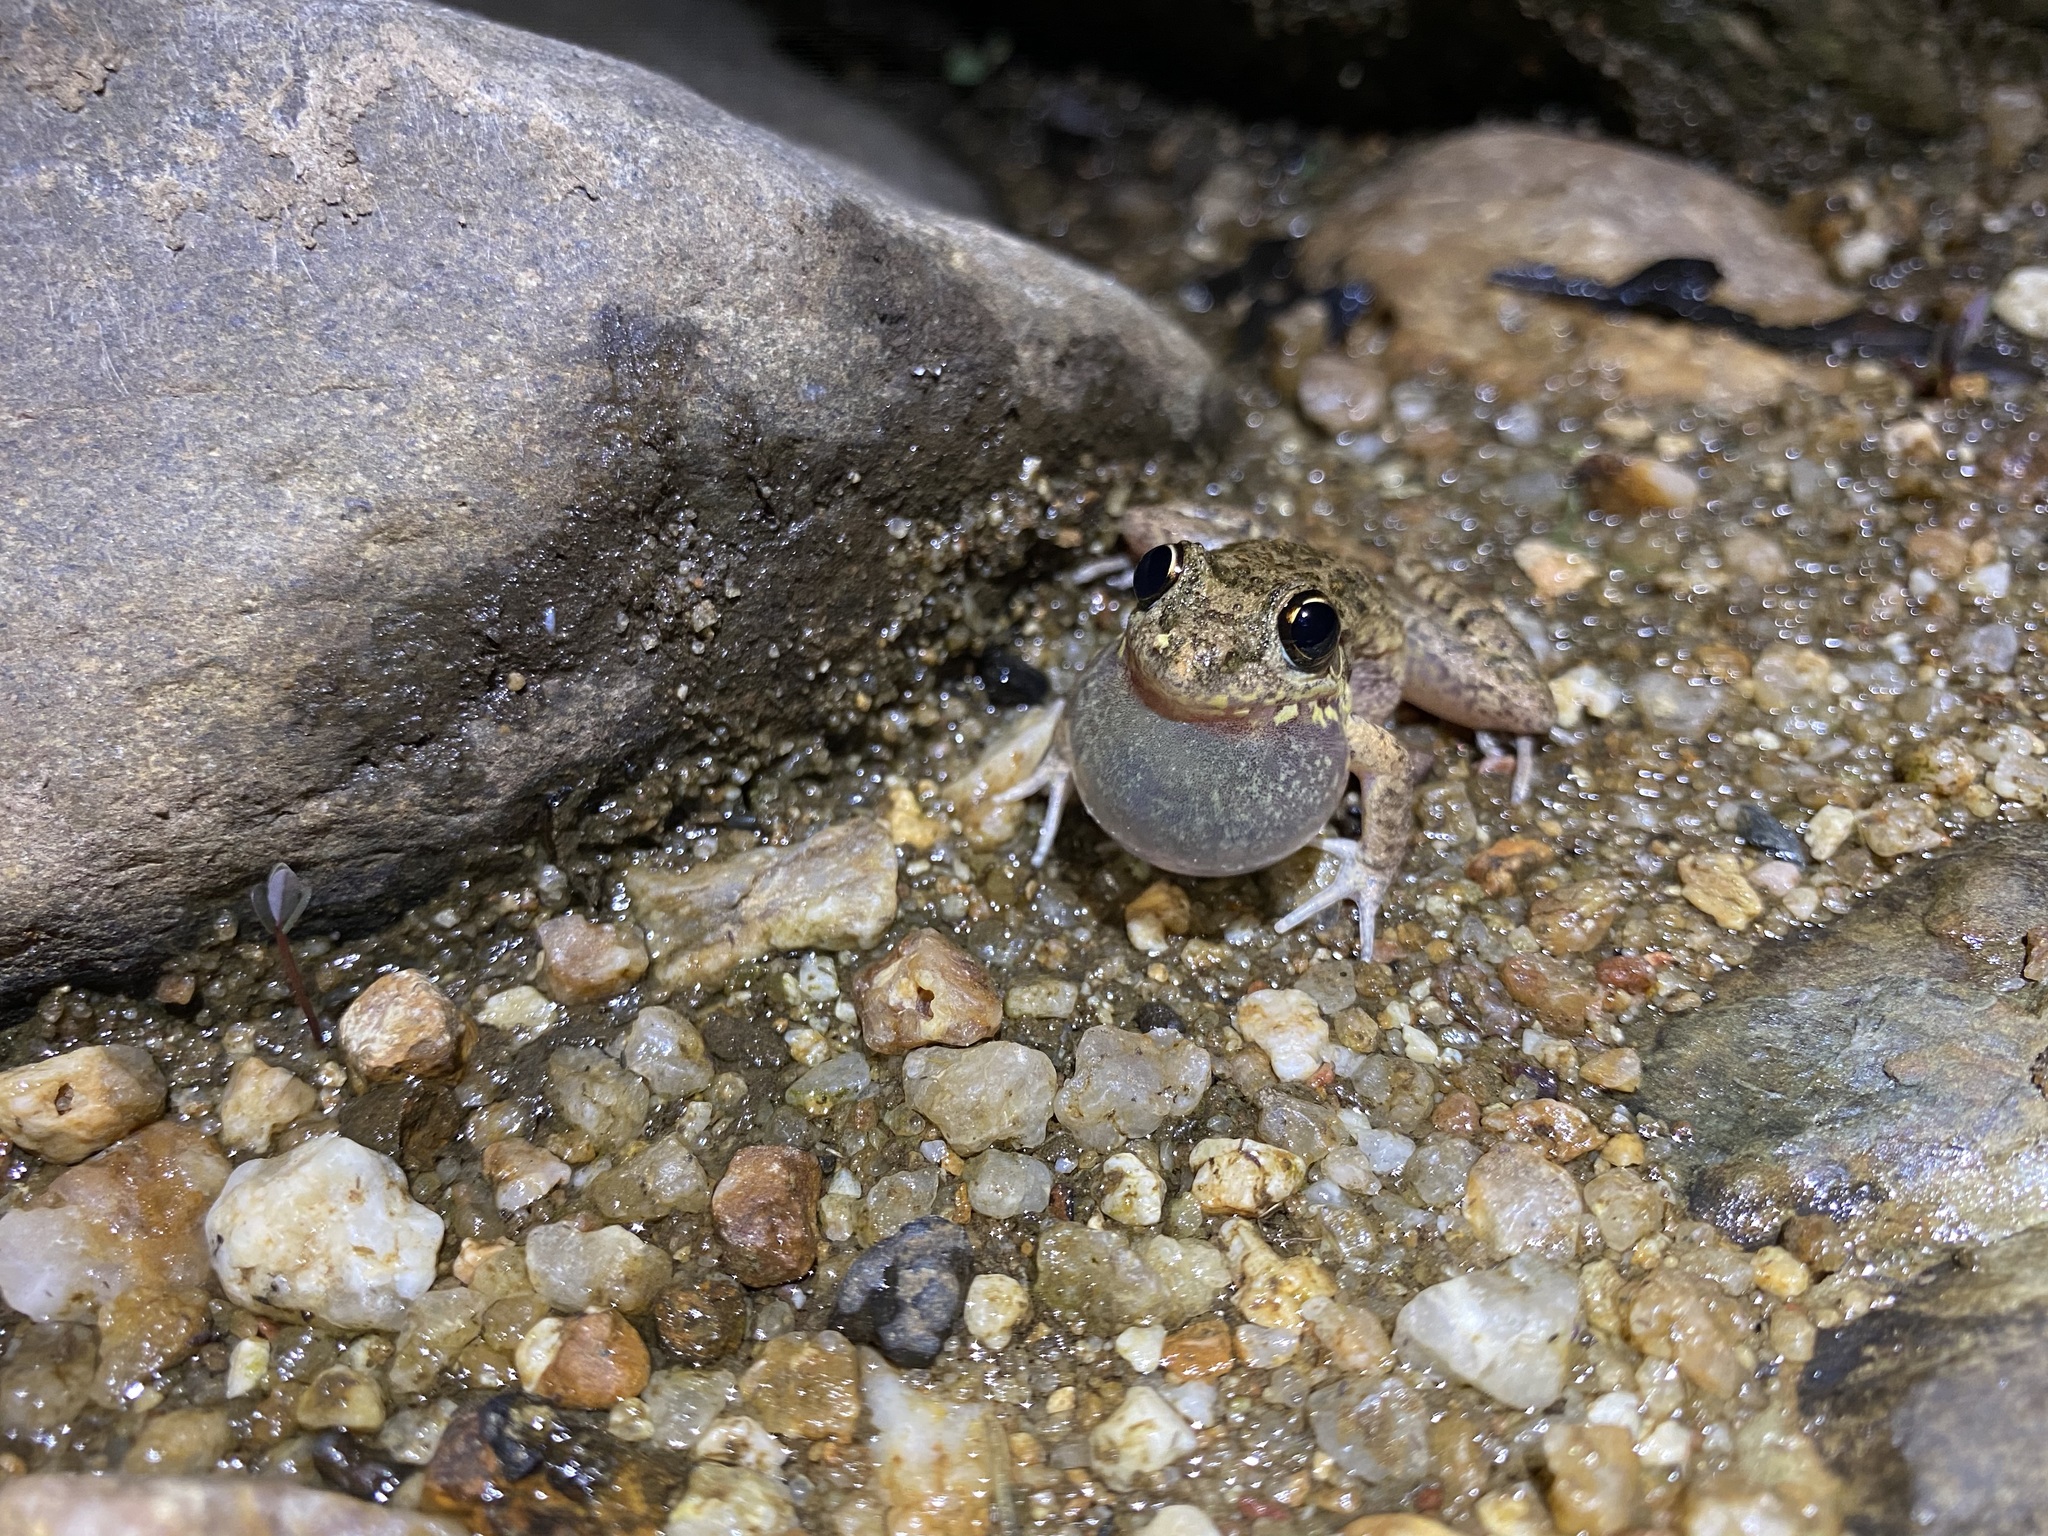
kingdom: Animalia
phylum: Chordata
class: Amphibia
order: Anura
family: Pelodryadidae
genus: Litoria
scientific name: Litoria inermis
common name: Bumpy rocket frog
